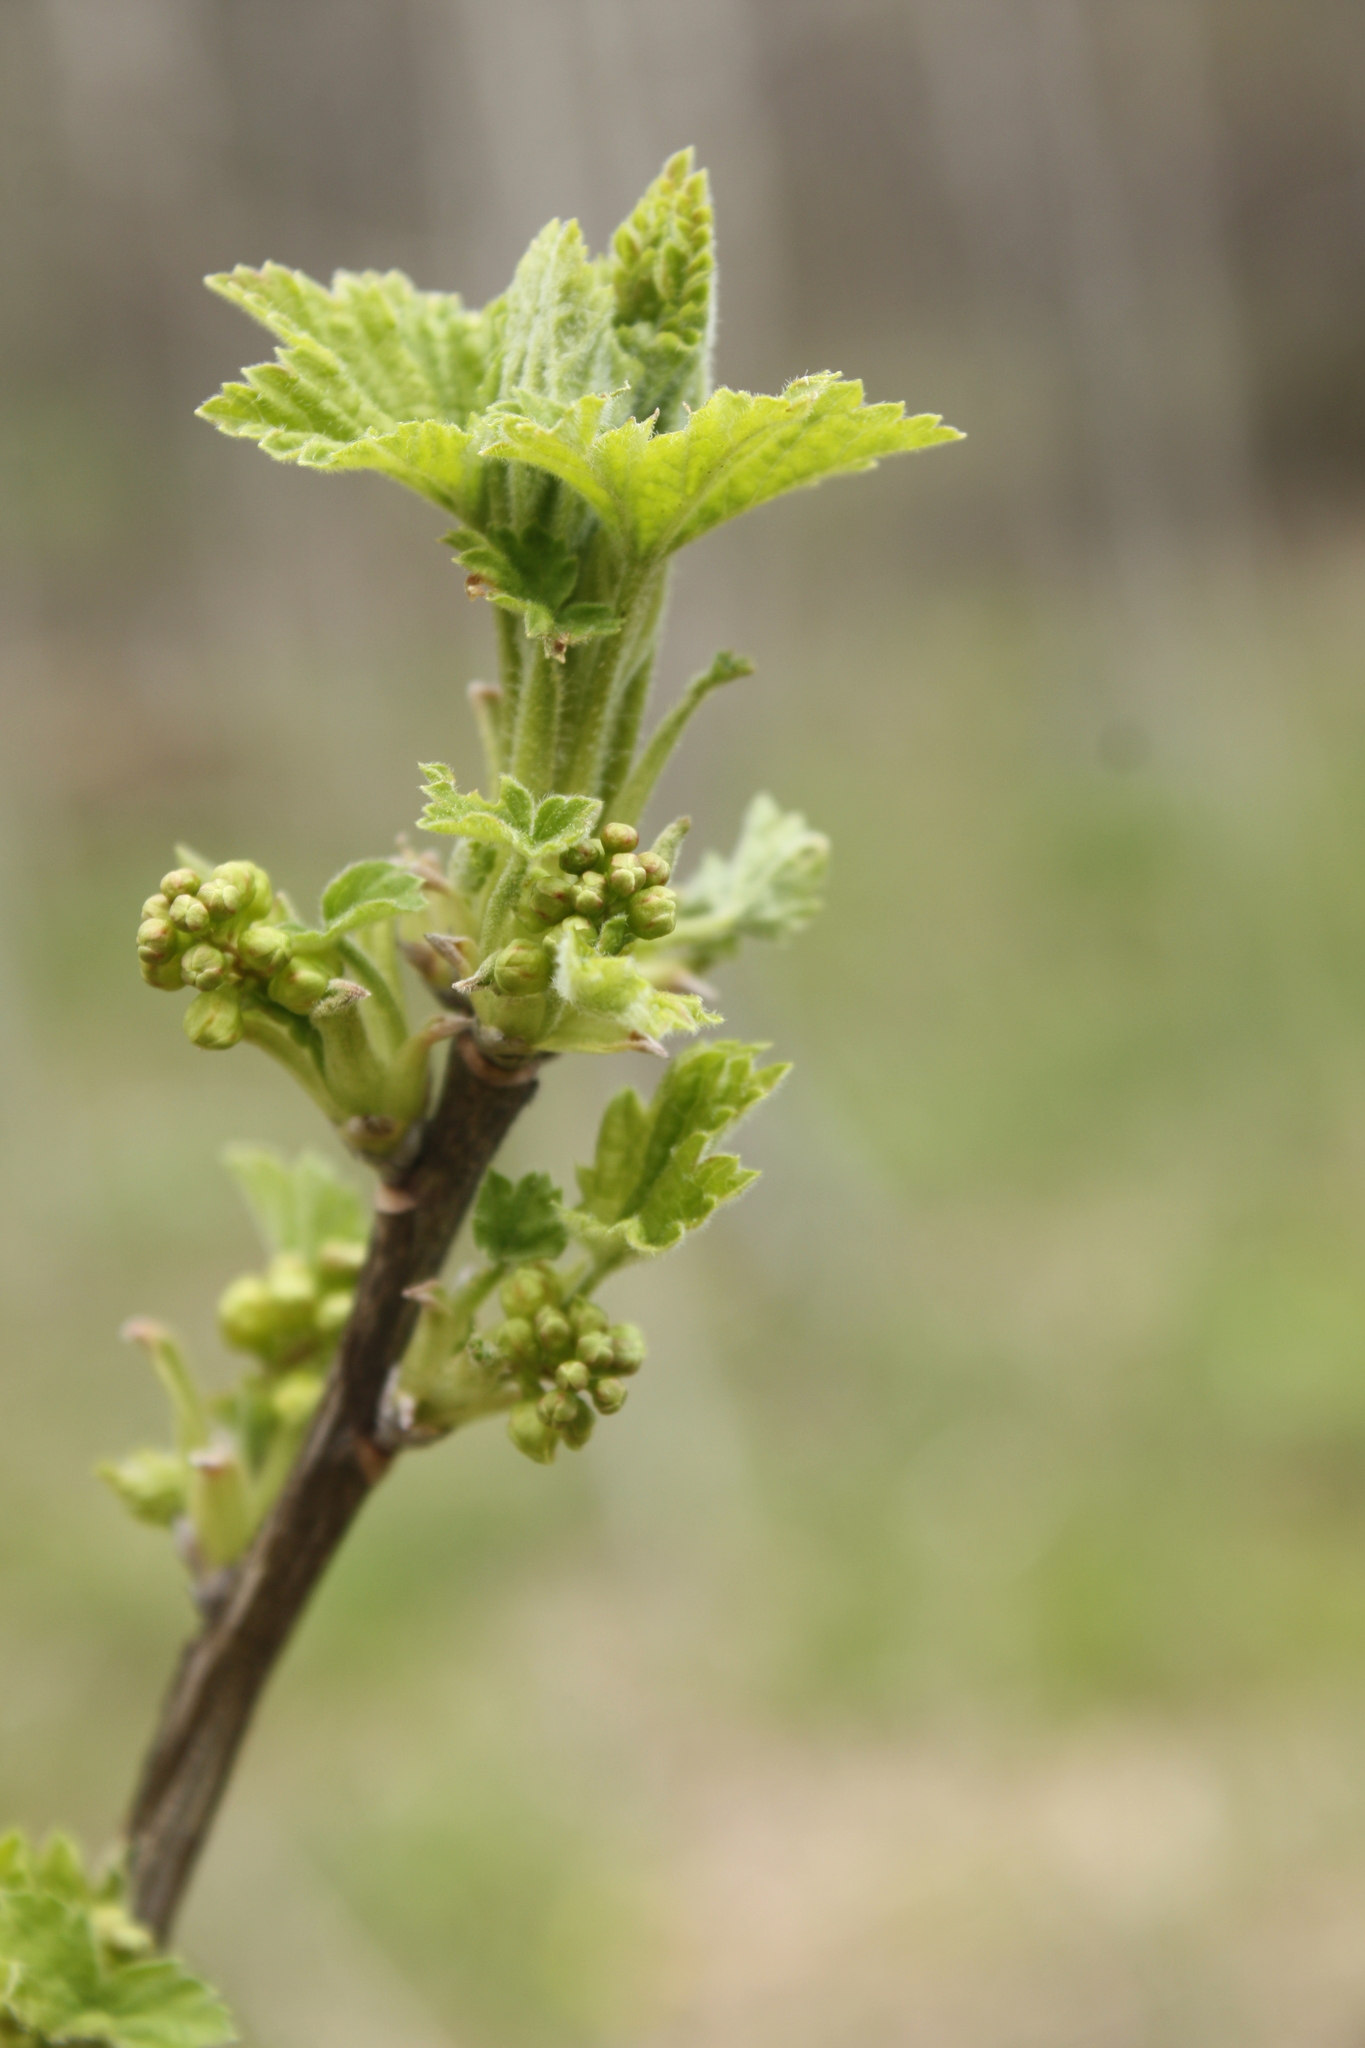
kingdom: Plantae
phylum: Tracheophyta
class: Magnoliopsida
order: Saxifragales
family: Grossulariaceae
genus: Ribes
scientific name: Ribes spicatum
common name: Downy currant
